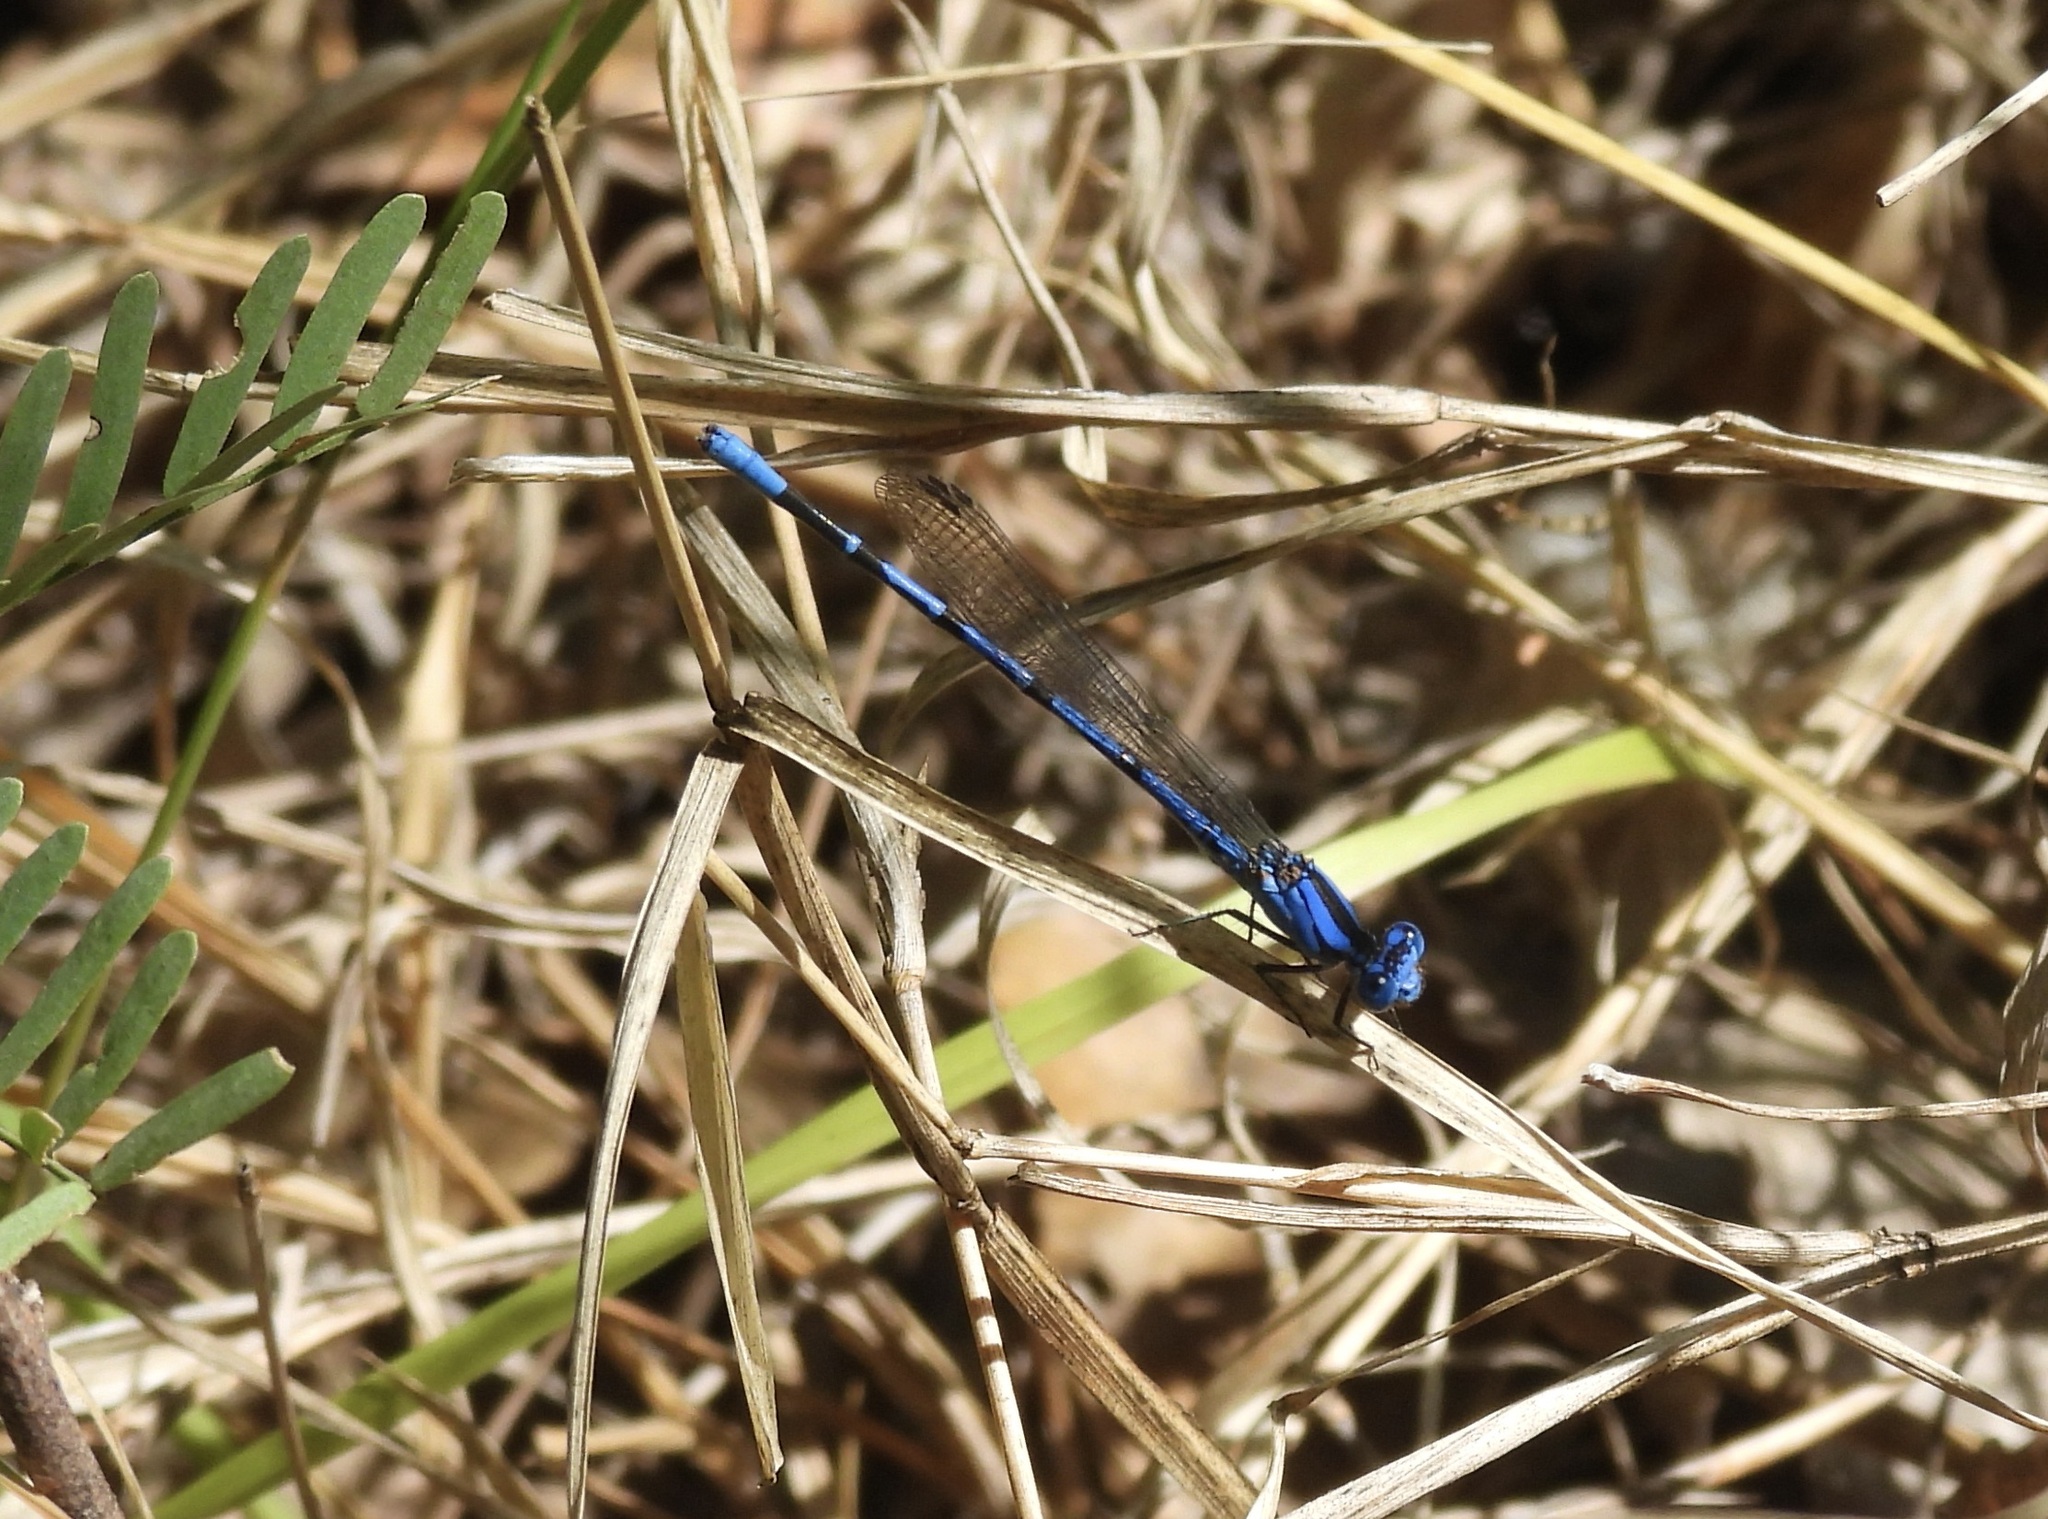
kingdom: Animalia
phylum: Arthropoda
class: Insecta
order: Odonata
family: Coenagrionidae
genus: Argia
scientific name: Argia funebris
